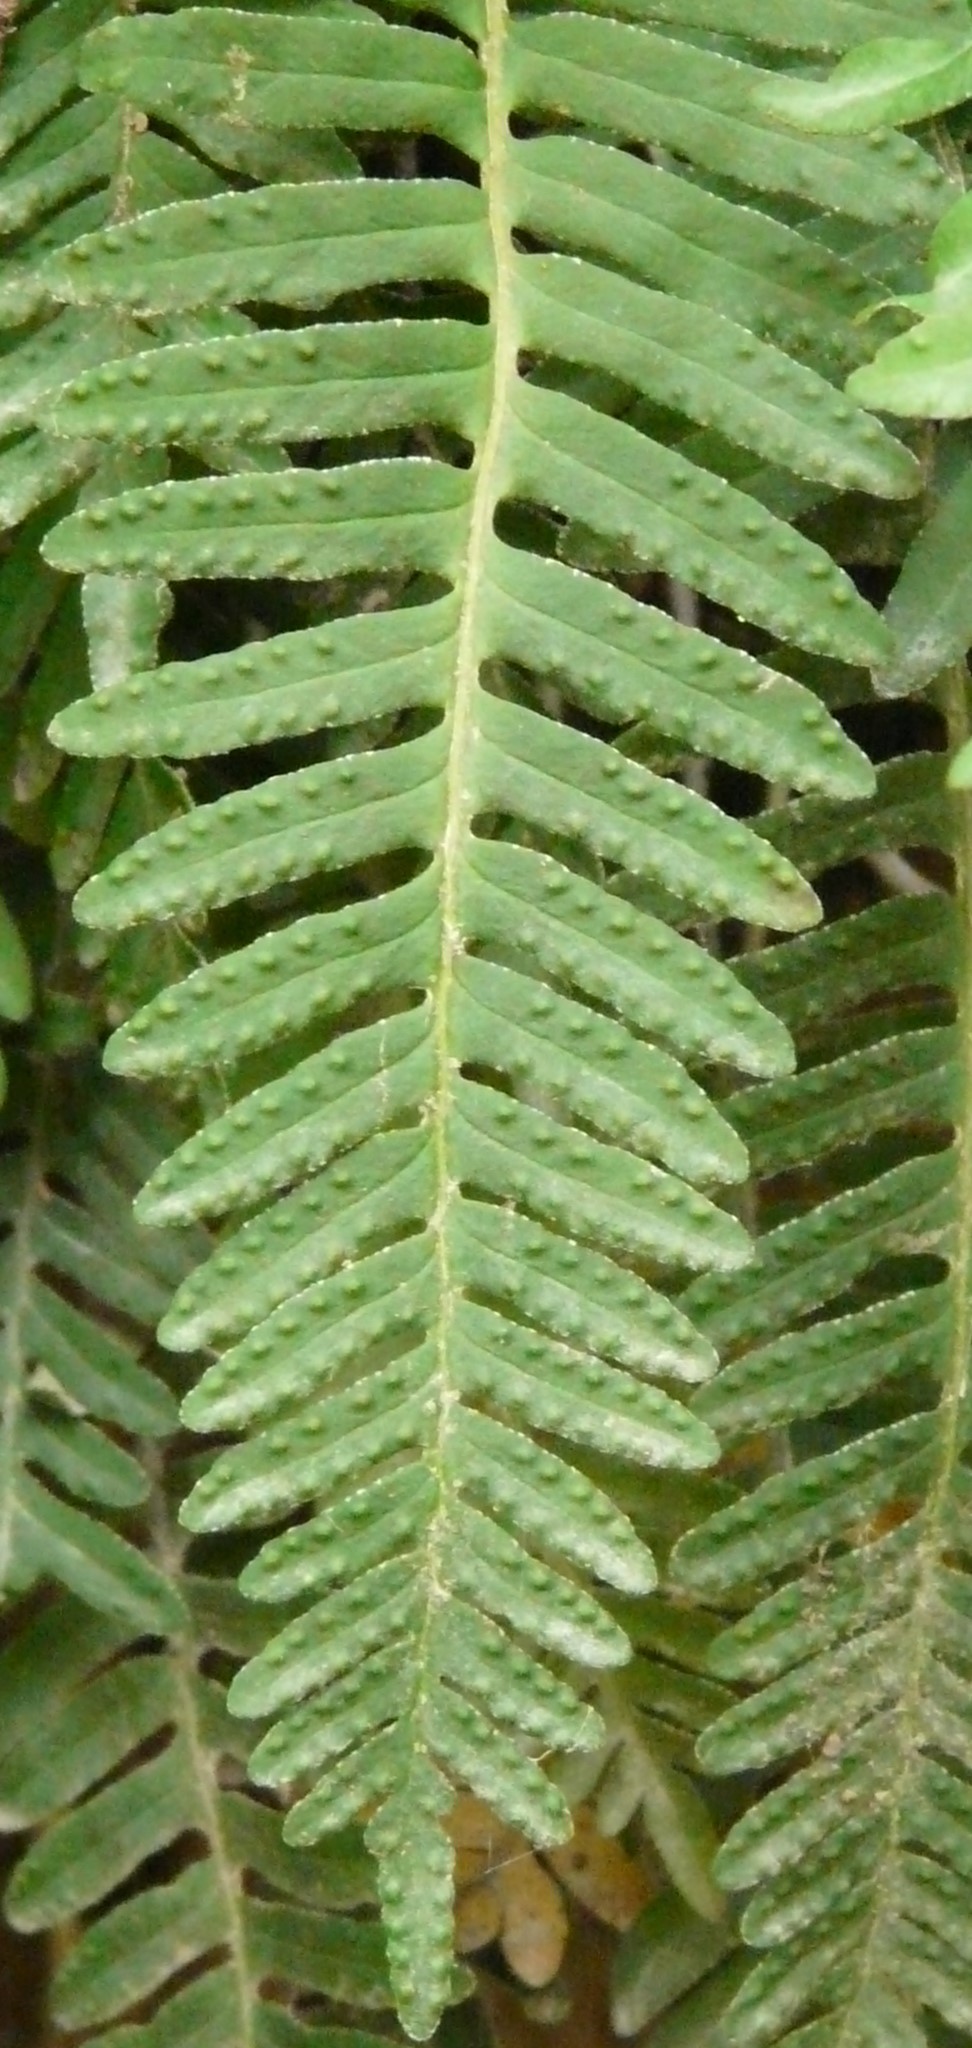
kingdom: Plantae
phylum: Tracheophyta
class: Polypodiopsida
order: Polypodiales
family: Polypodiaceae
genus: Pleopeltis
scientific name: Pleopeltis michauxiana
